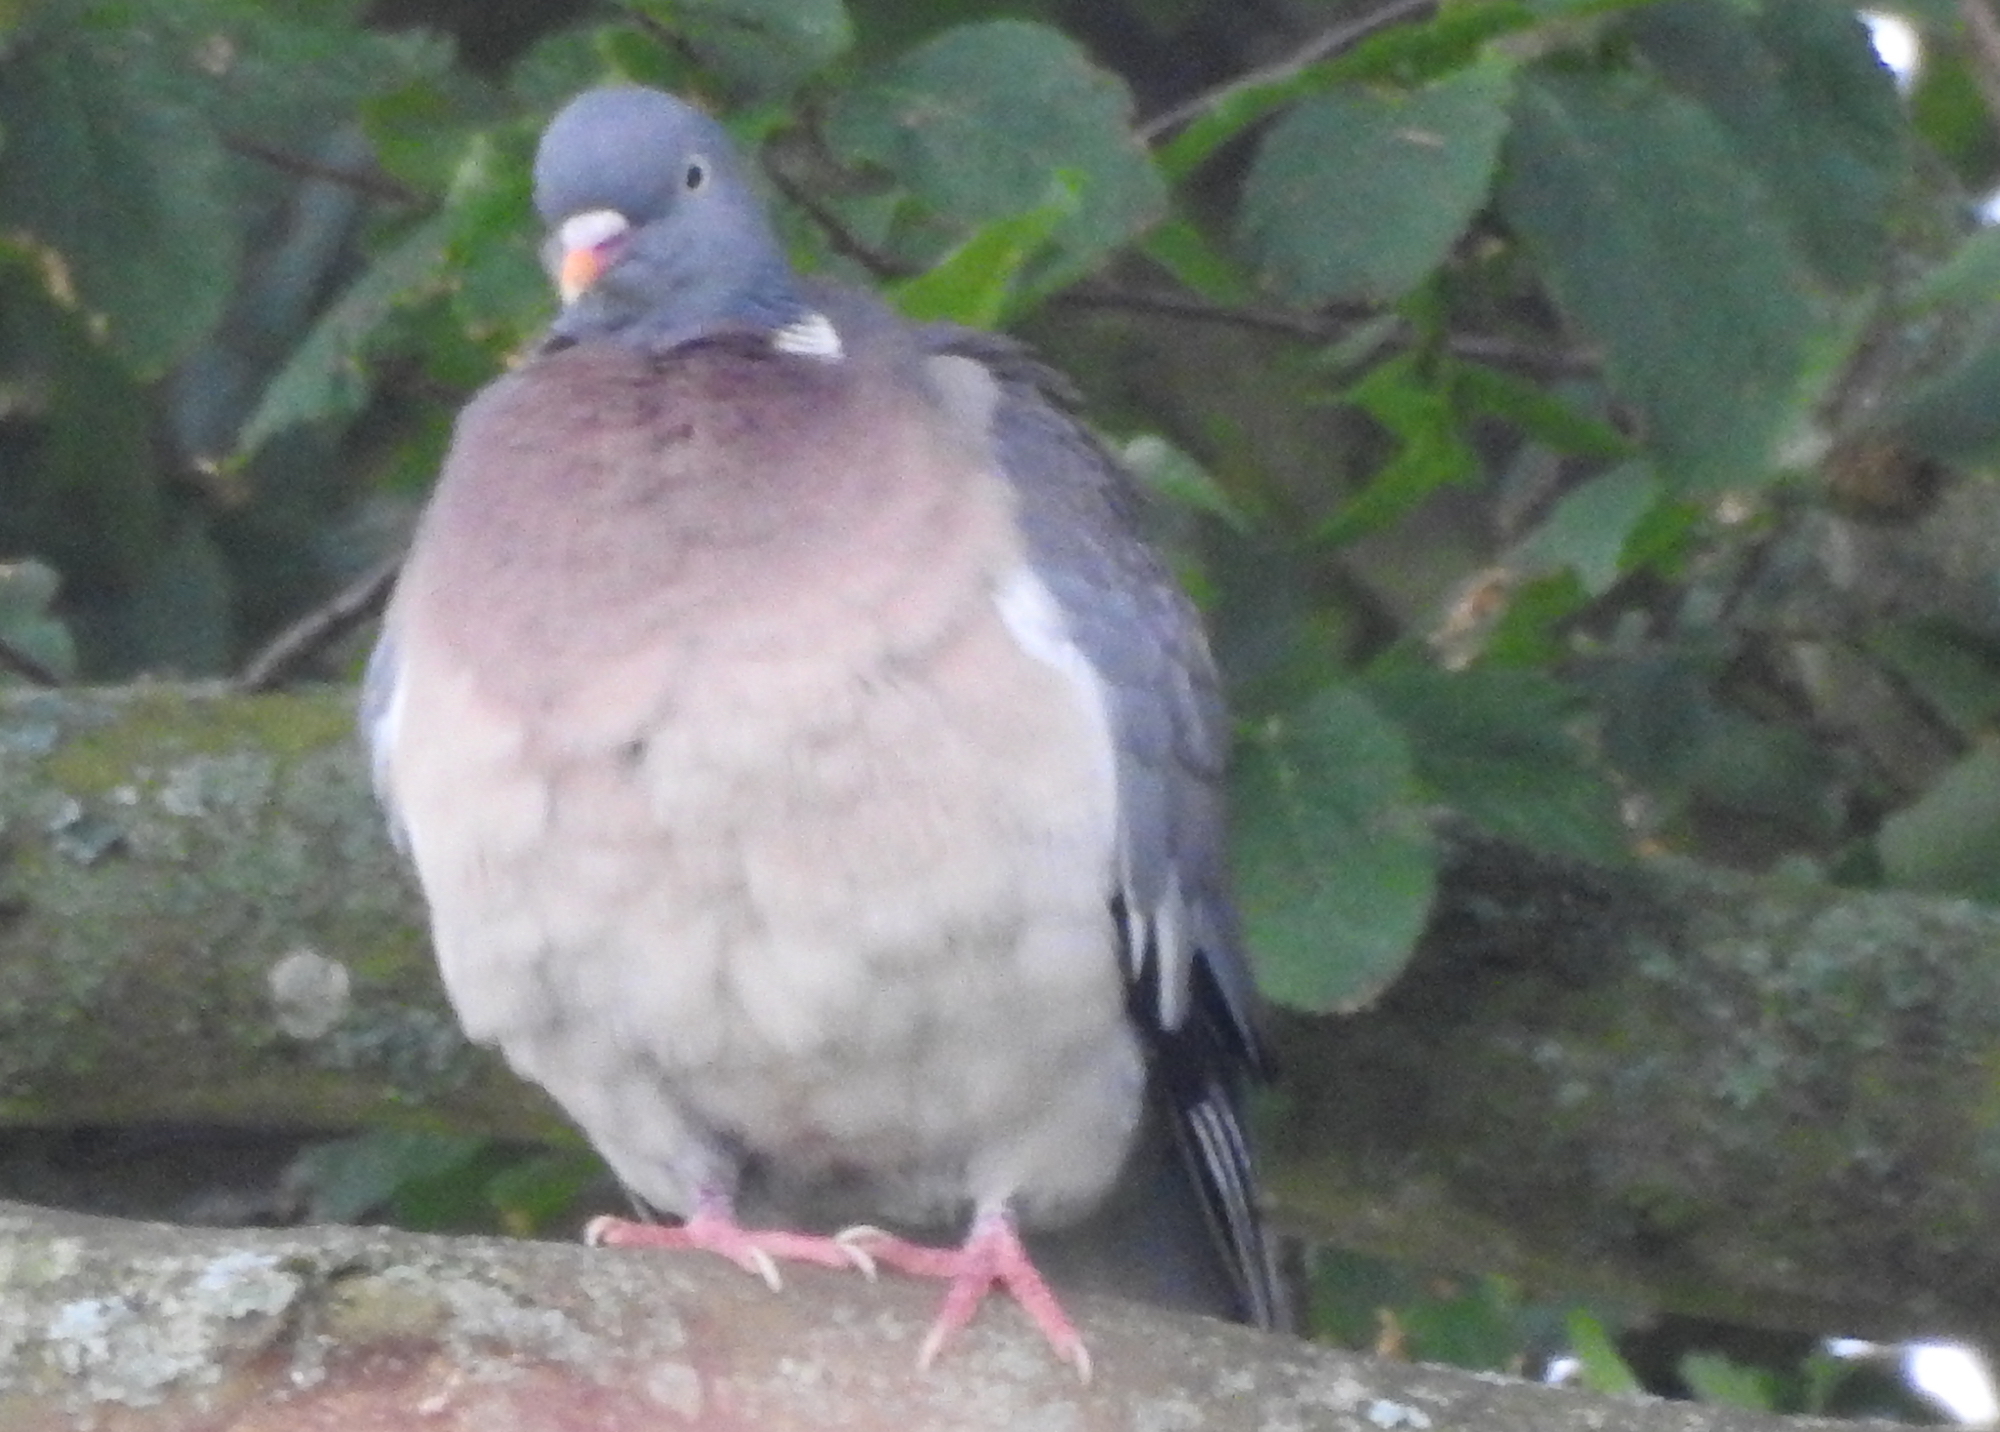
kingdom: Animalia
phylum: Chordata
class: Aves
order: Columbiformes
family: Columbidae
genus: Columba
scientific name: Columba palumbus
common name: Common wood pigeon
